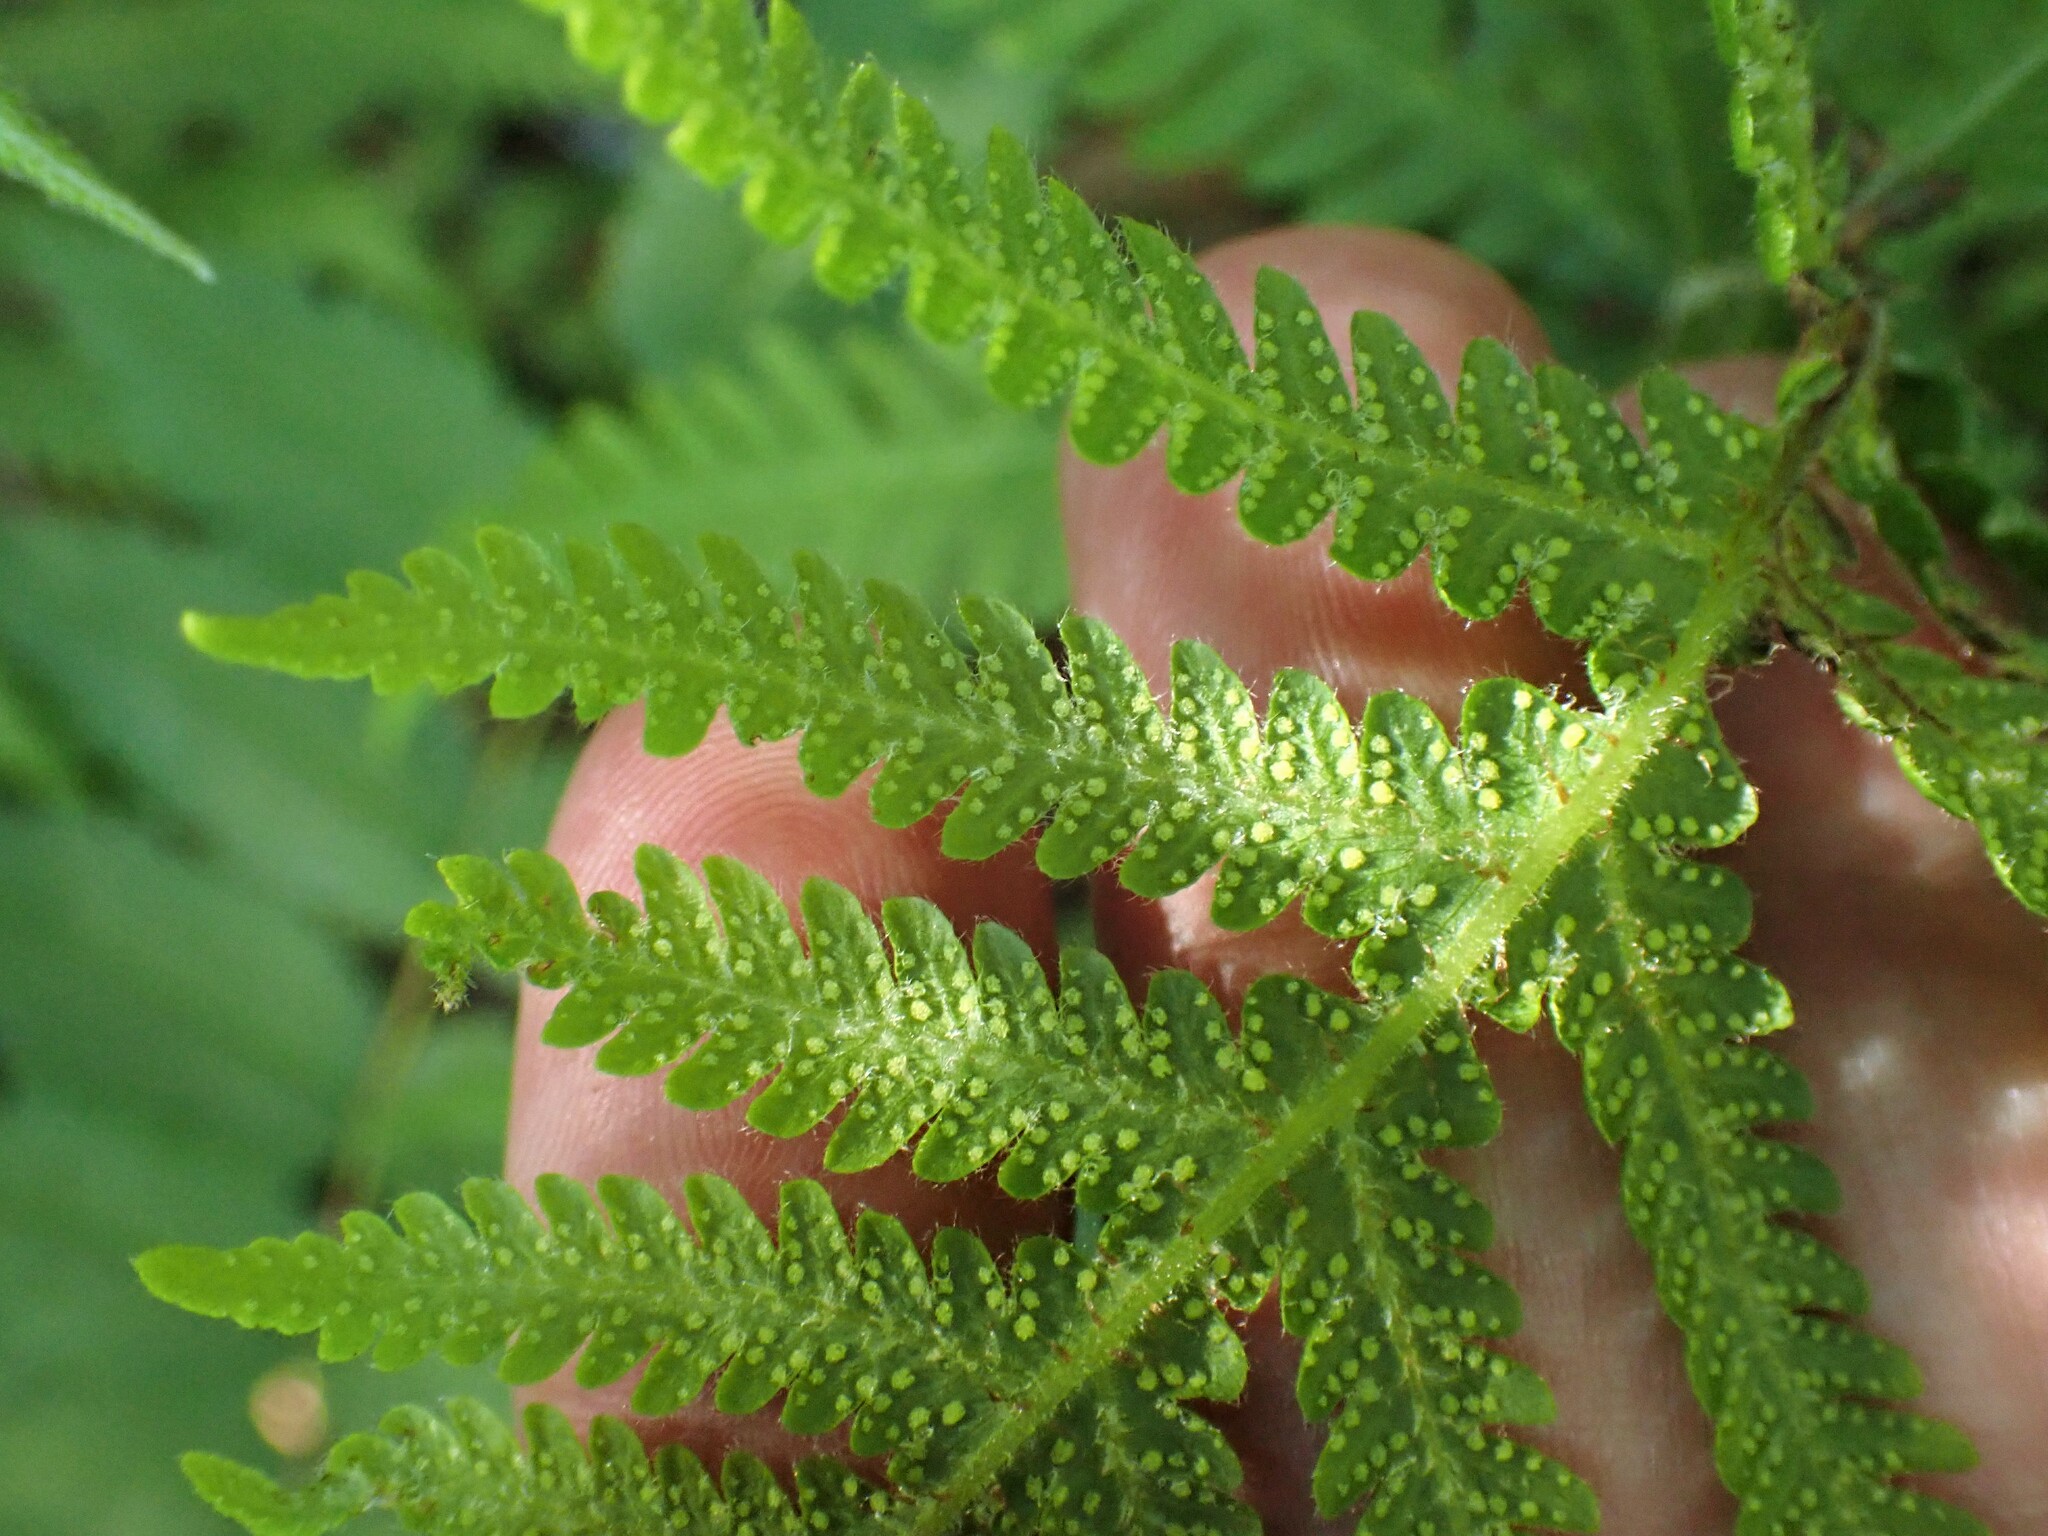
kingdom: Plantae
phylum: Tracheophyta
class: Polypodiopsida
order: Polypodiales
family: Thelypteridaceae
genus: Phegopteris
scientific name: Phegopteris connectilis
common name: Beech fern
